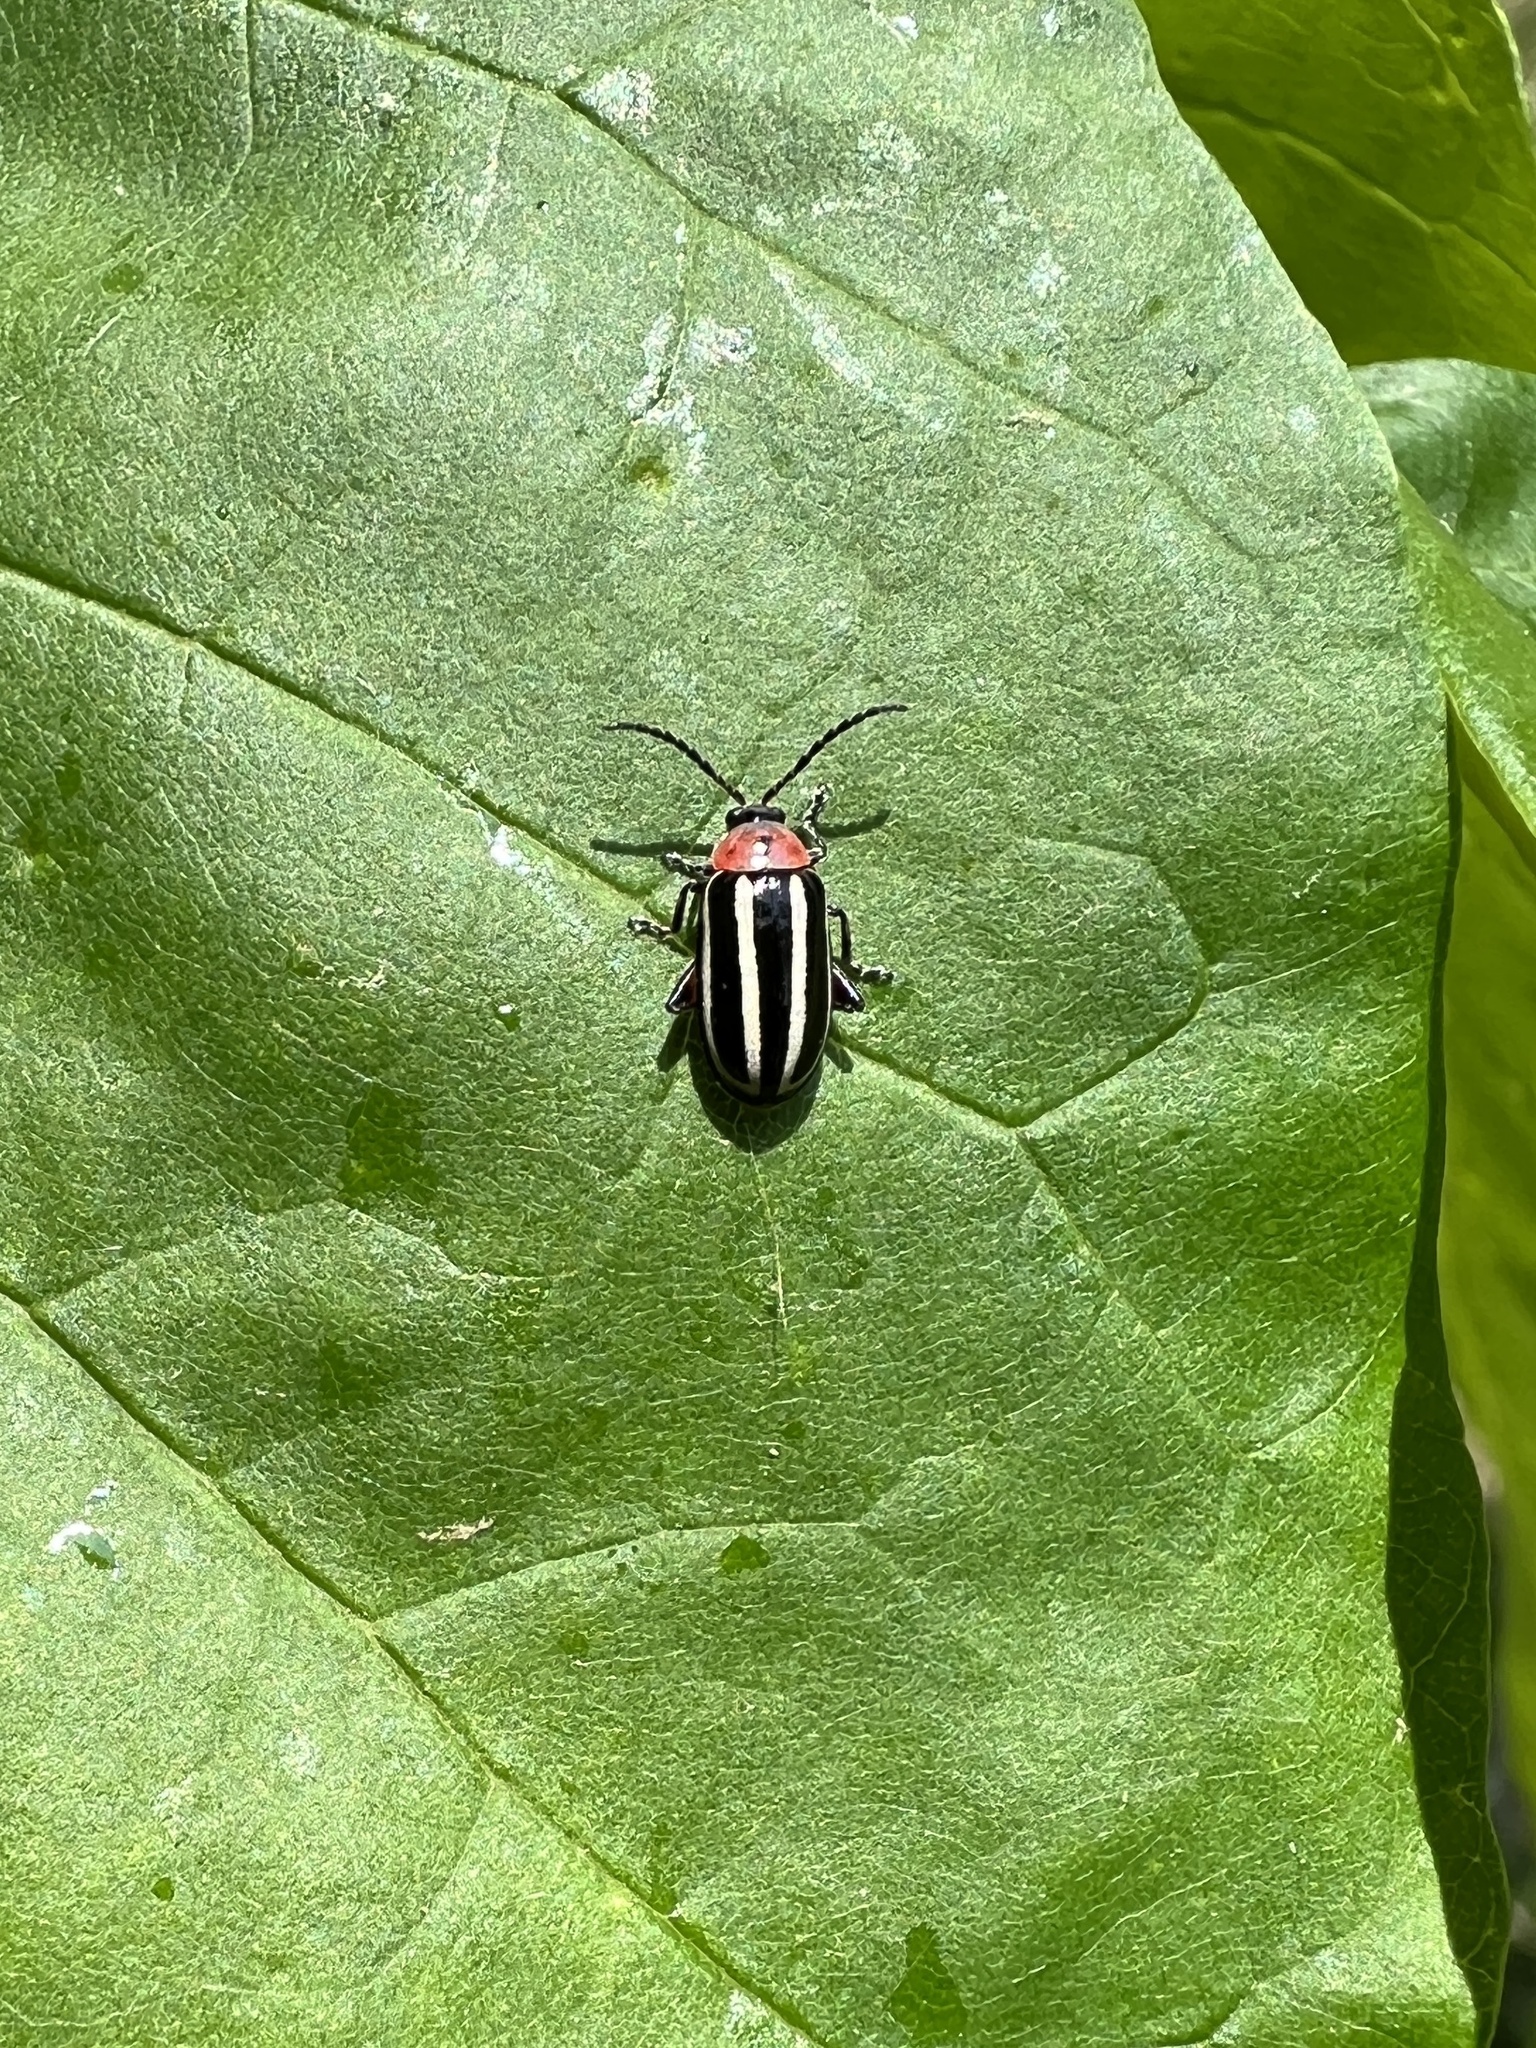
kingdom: Animalia
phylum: Arthropoda
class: Insecta
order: Coleoptera
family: Chrysomelidae
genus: Disonycha
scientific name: Disonycha glabrata
